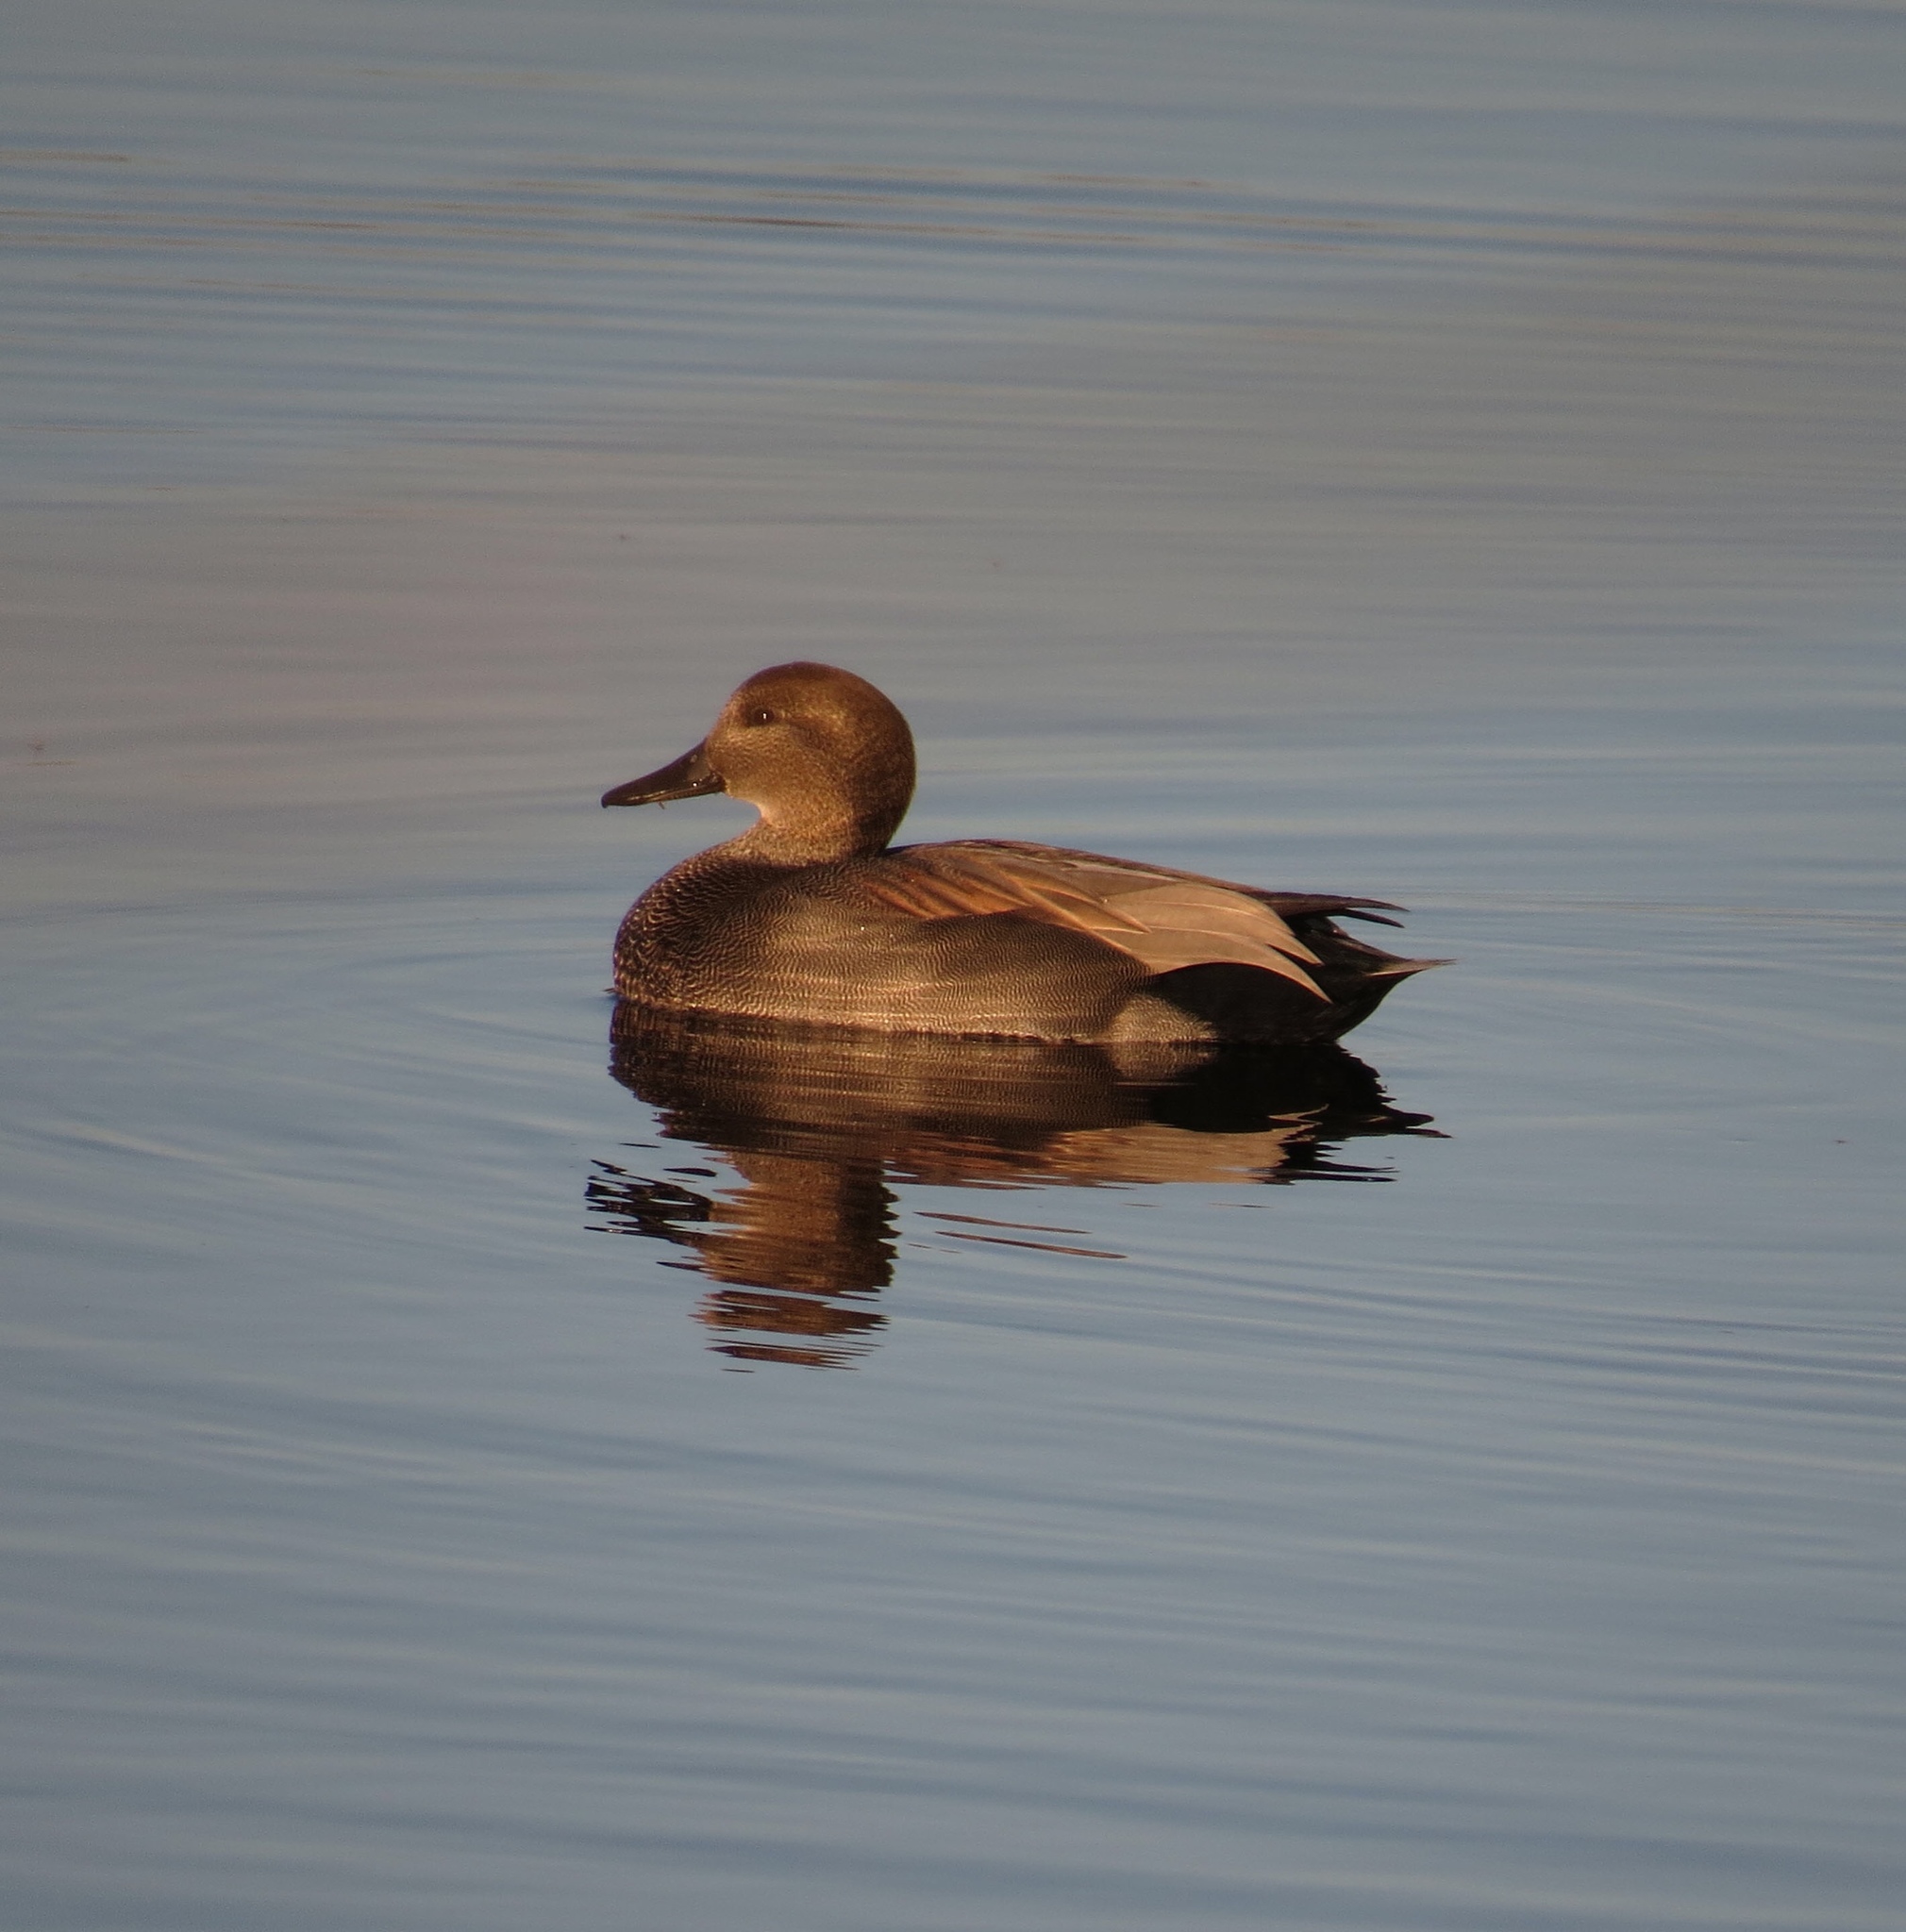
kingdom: Animalia
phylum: Chordata
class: Aves
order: Anseriformes
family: Anatidae
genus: Mareca
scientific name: Mareca strepera
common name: Gadwall
